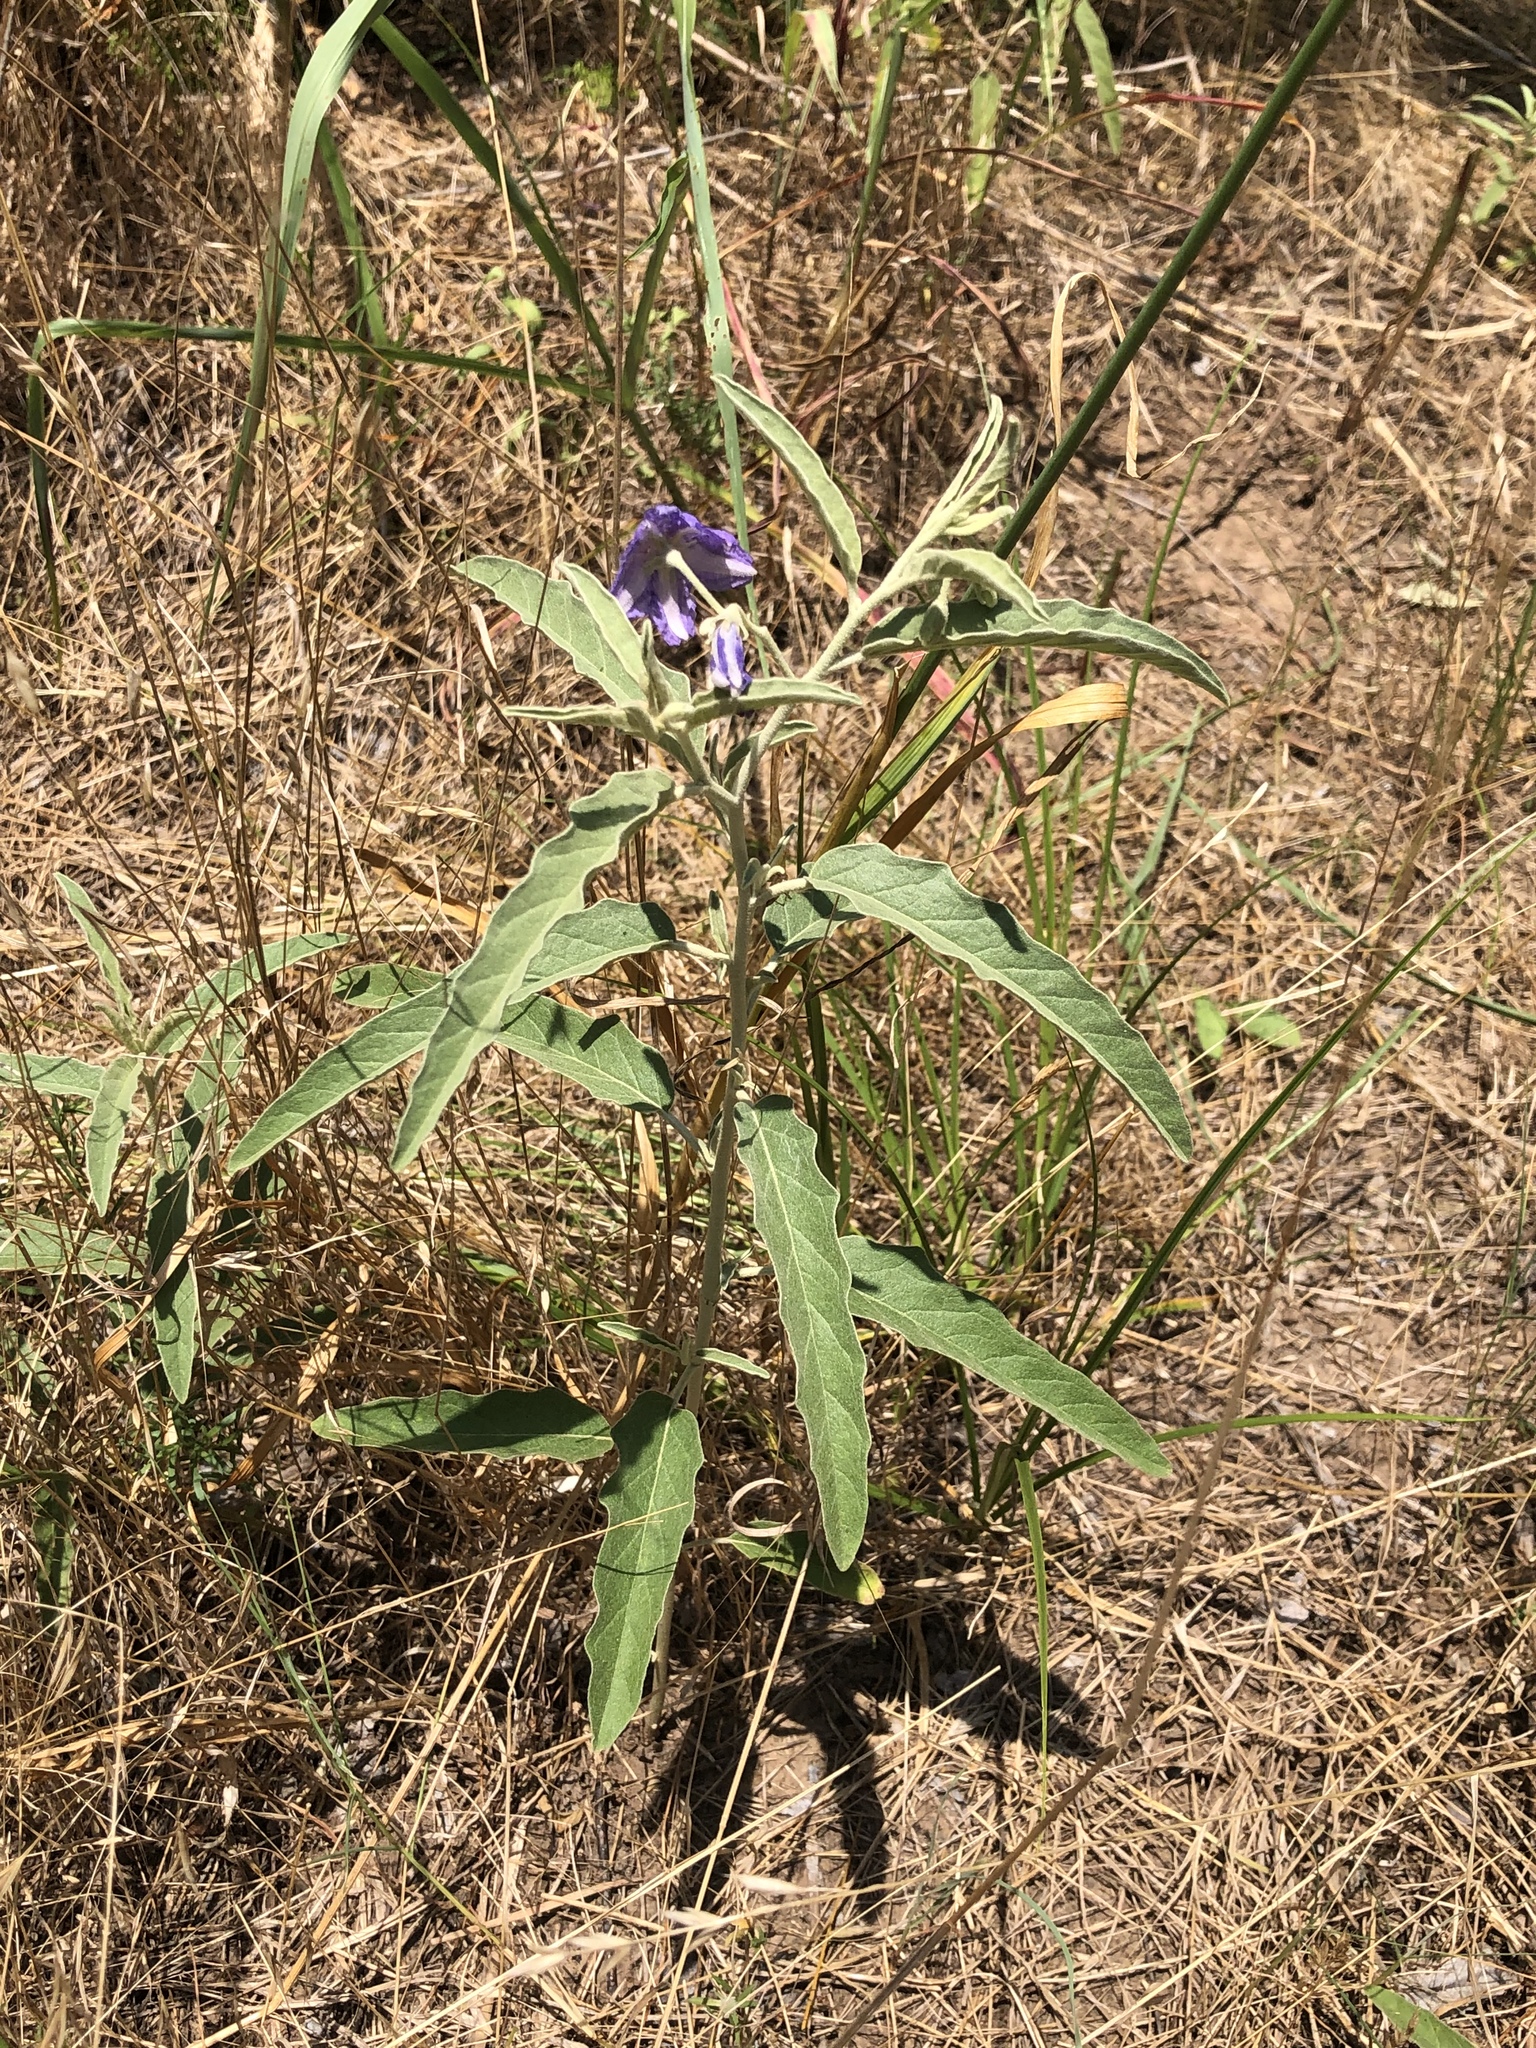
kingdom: Plantae
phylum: Tracheophyta
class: Magnoliopsida
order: Solanales
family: Solanaceae
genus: Solanum
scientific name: Solanum elaeagnifolium
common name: Silverleaf nightshade
